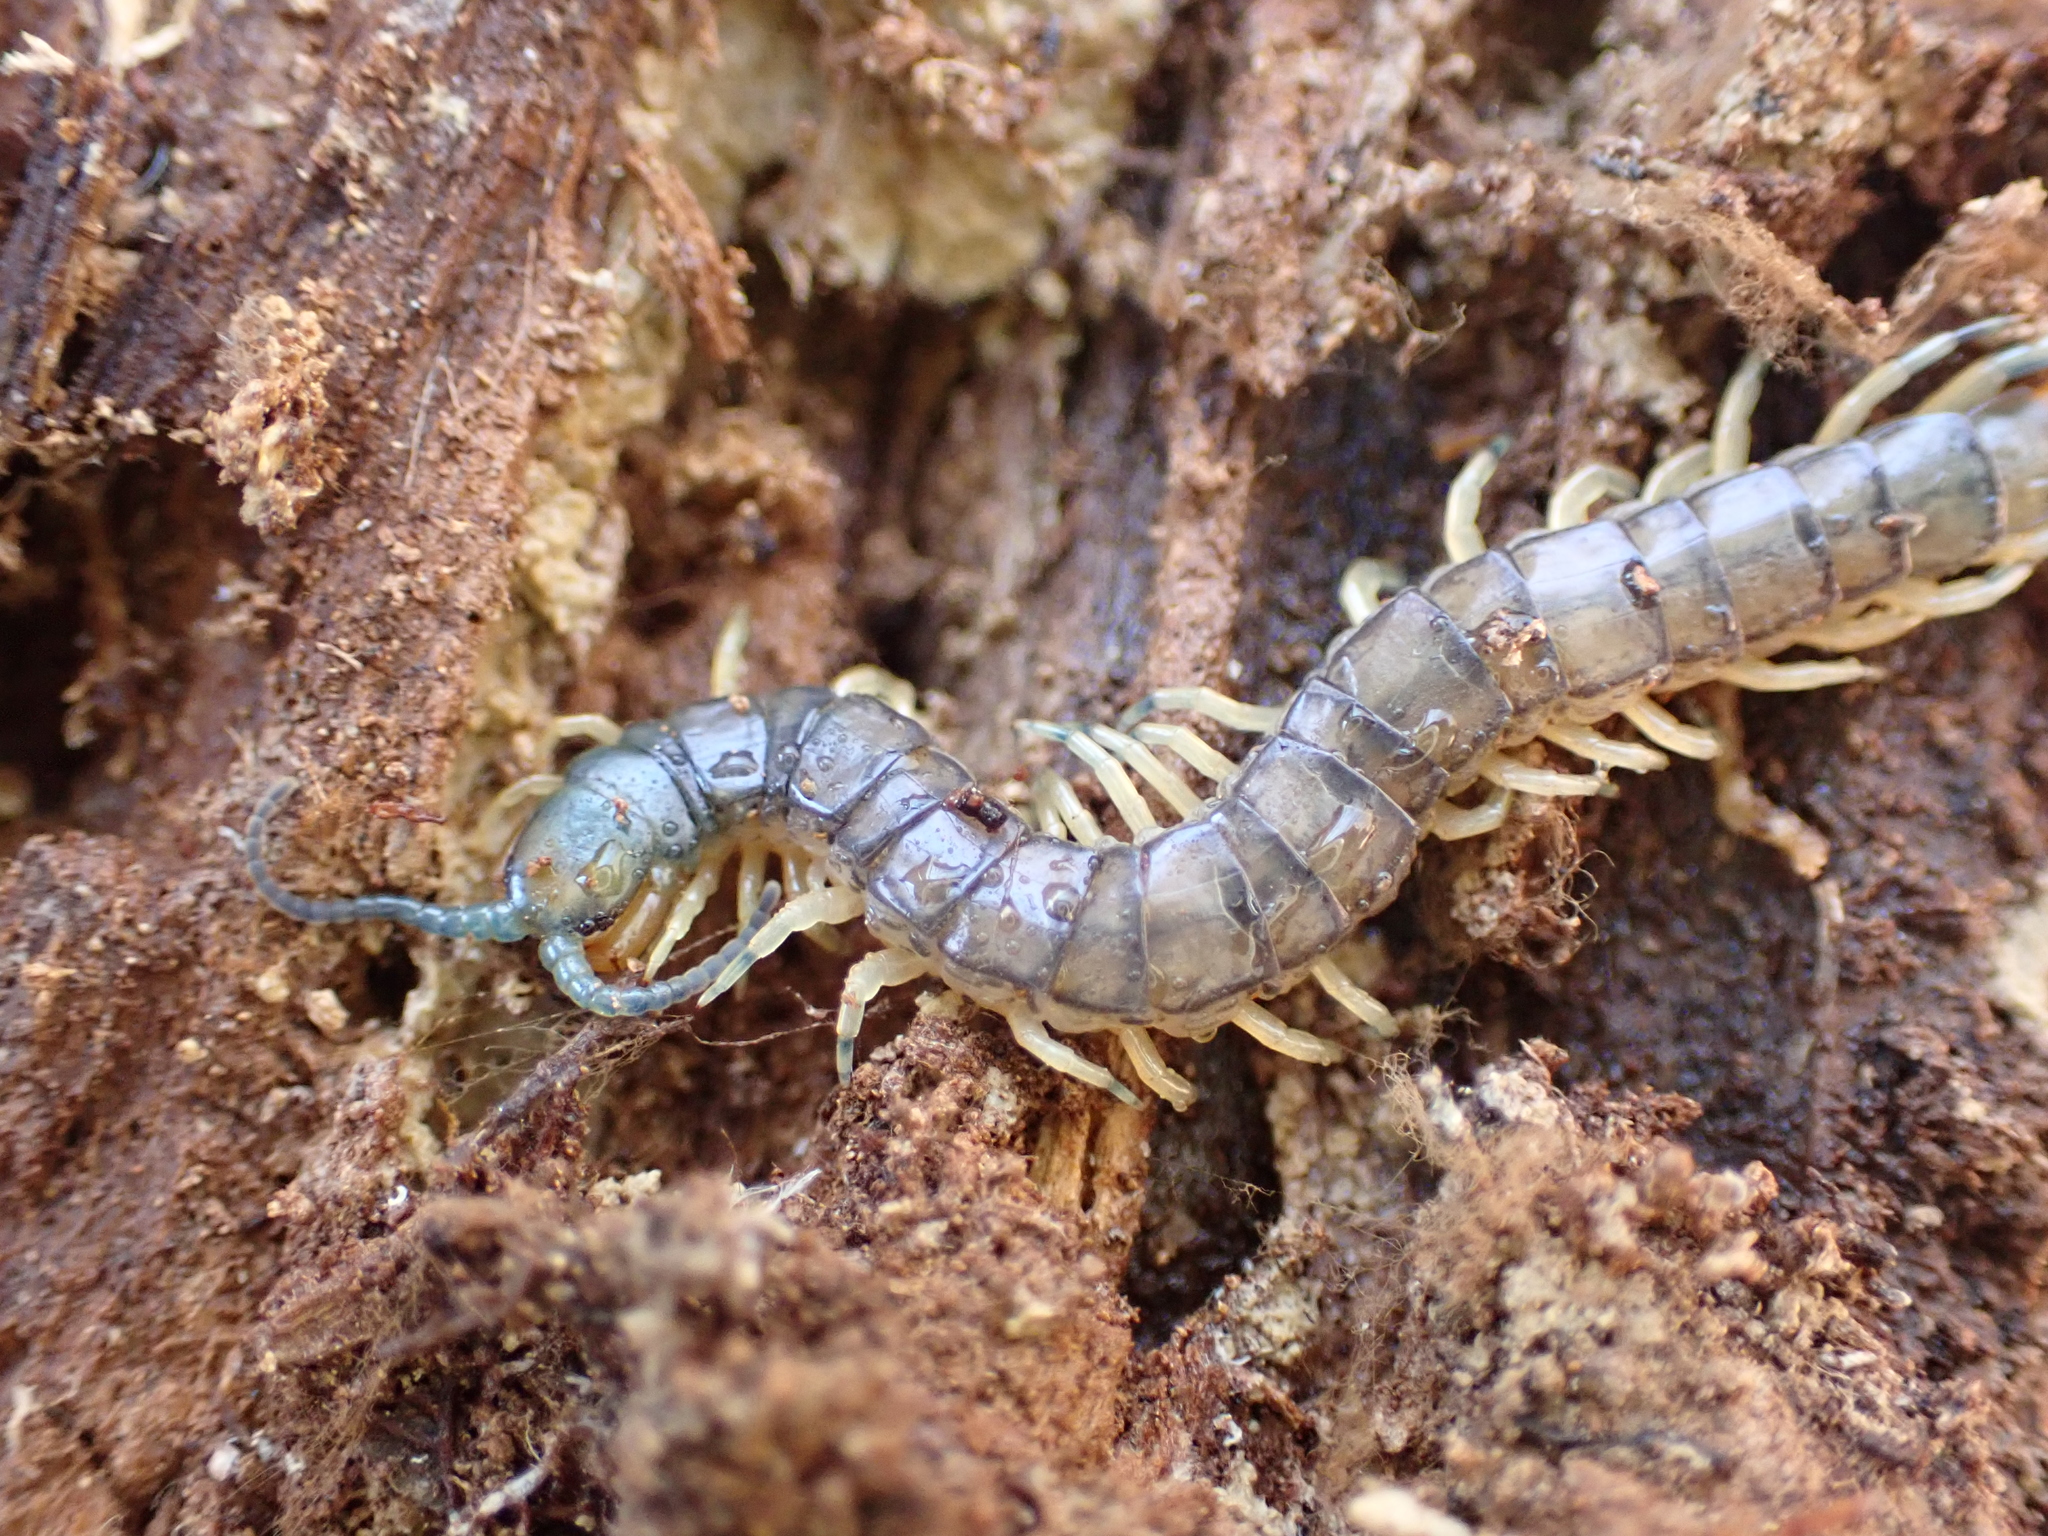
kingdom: Animalia
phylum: Arthropoda
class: Chilopoda
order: Scolopendromorpha
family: Scolopendridae
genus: Hemiscolopendra
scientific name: Hemiscolopendra marginata
